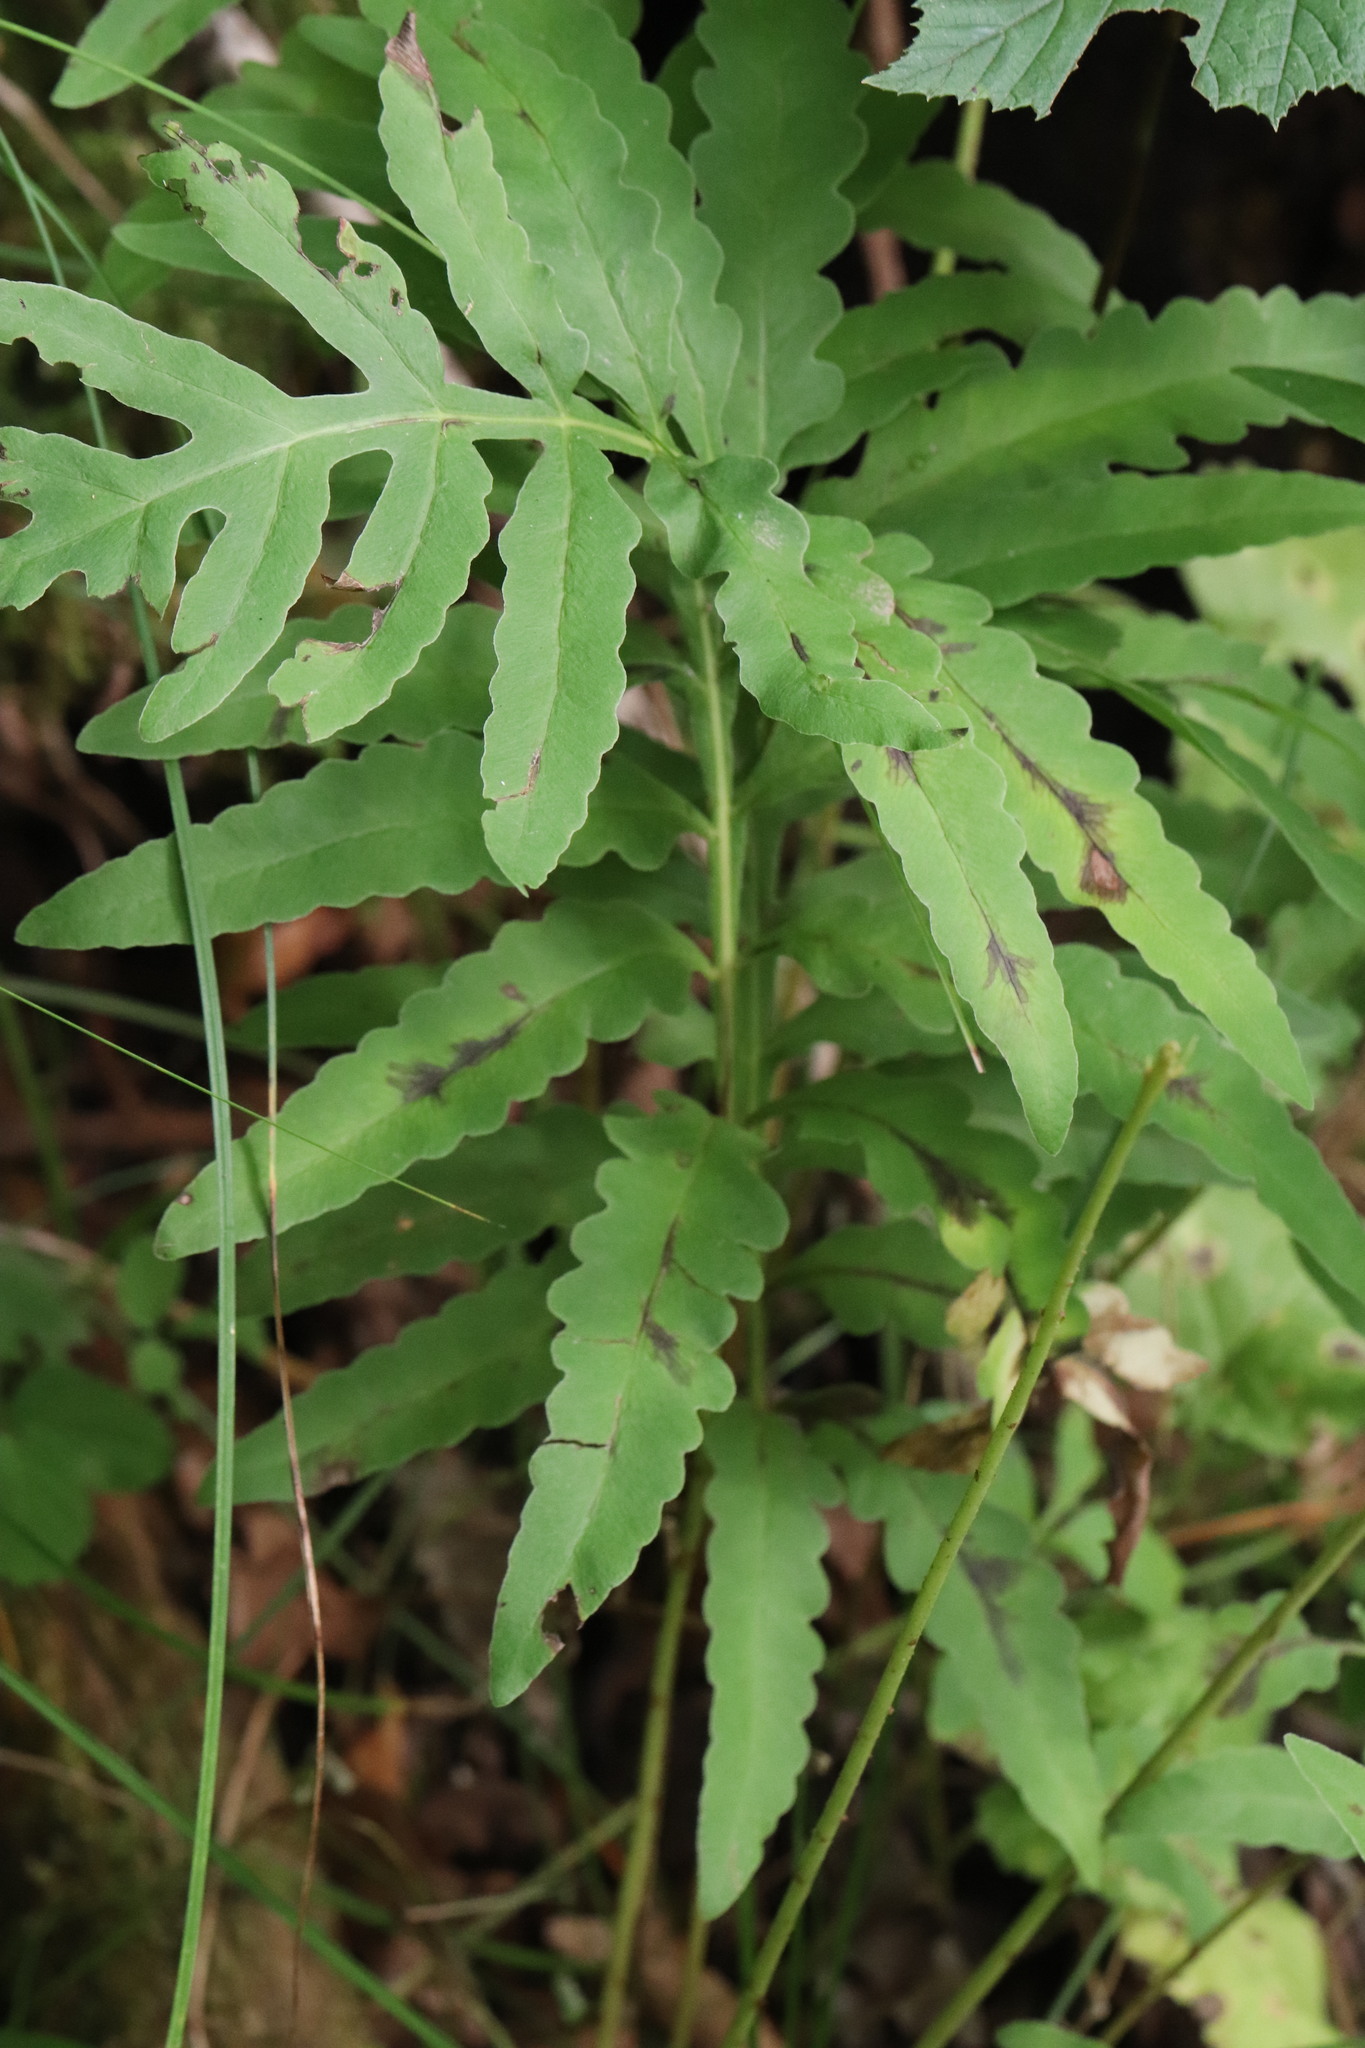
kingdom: Plantae
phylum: Tracheophyta
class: Polypodiopsida
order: Polypodiales
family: Onocleaceae
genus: Onoclea
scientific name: Onoclea sensibilis
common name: Sensitive fern
